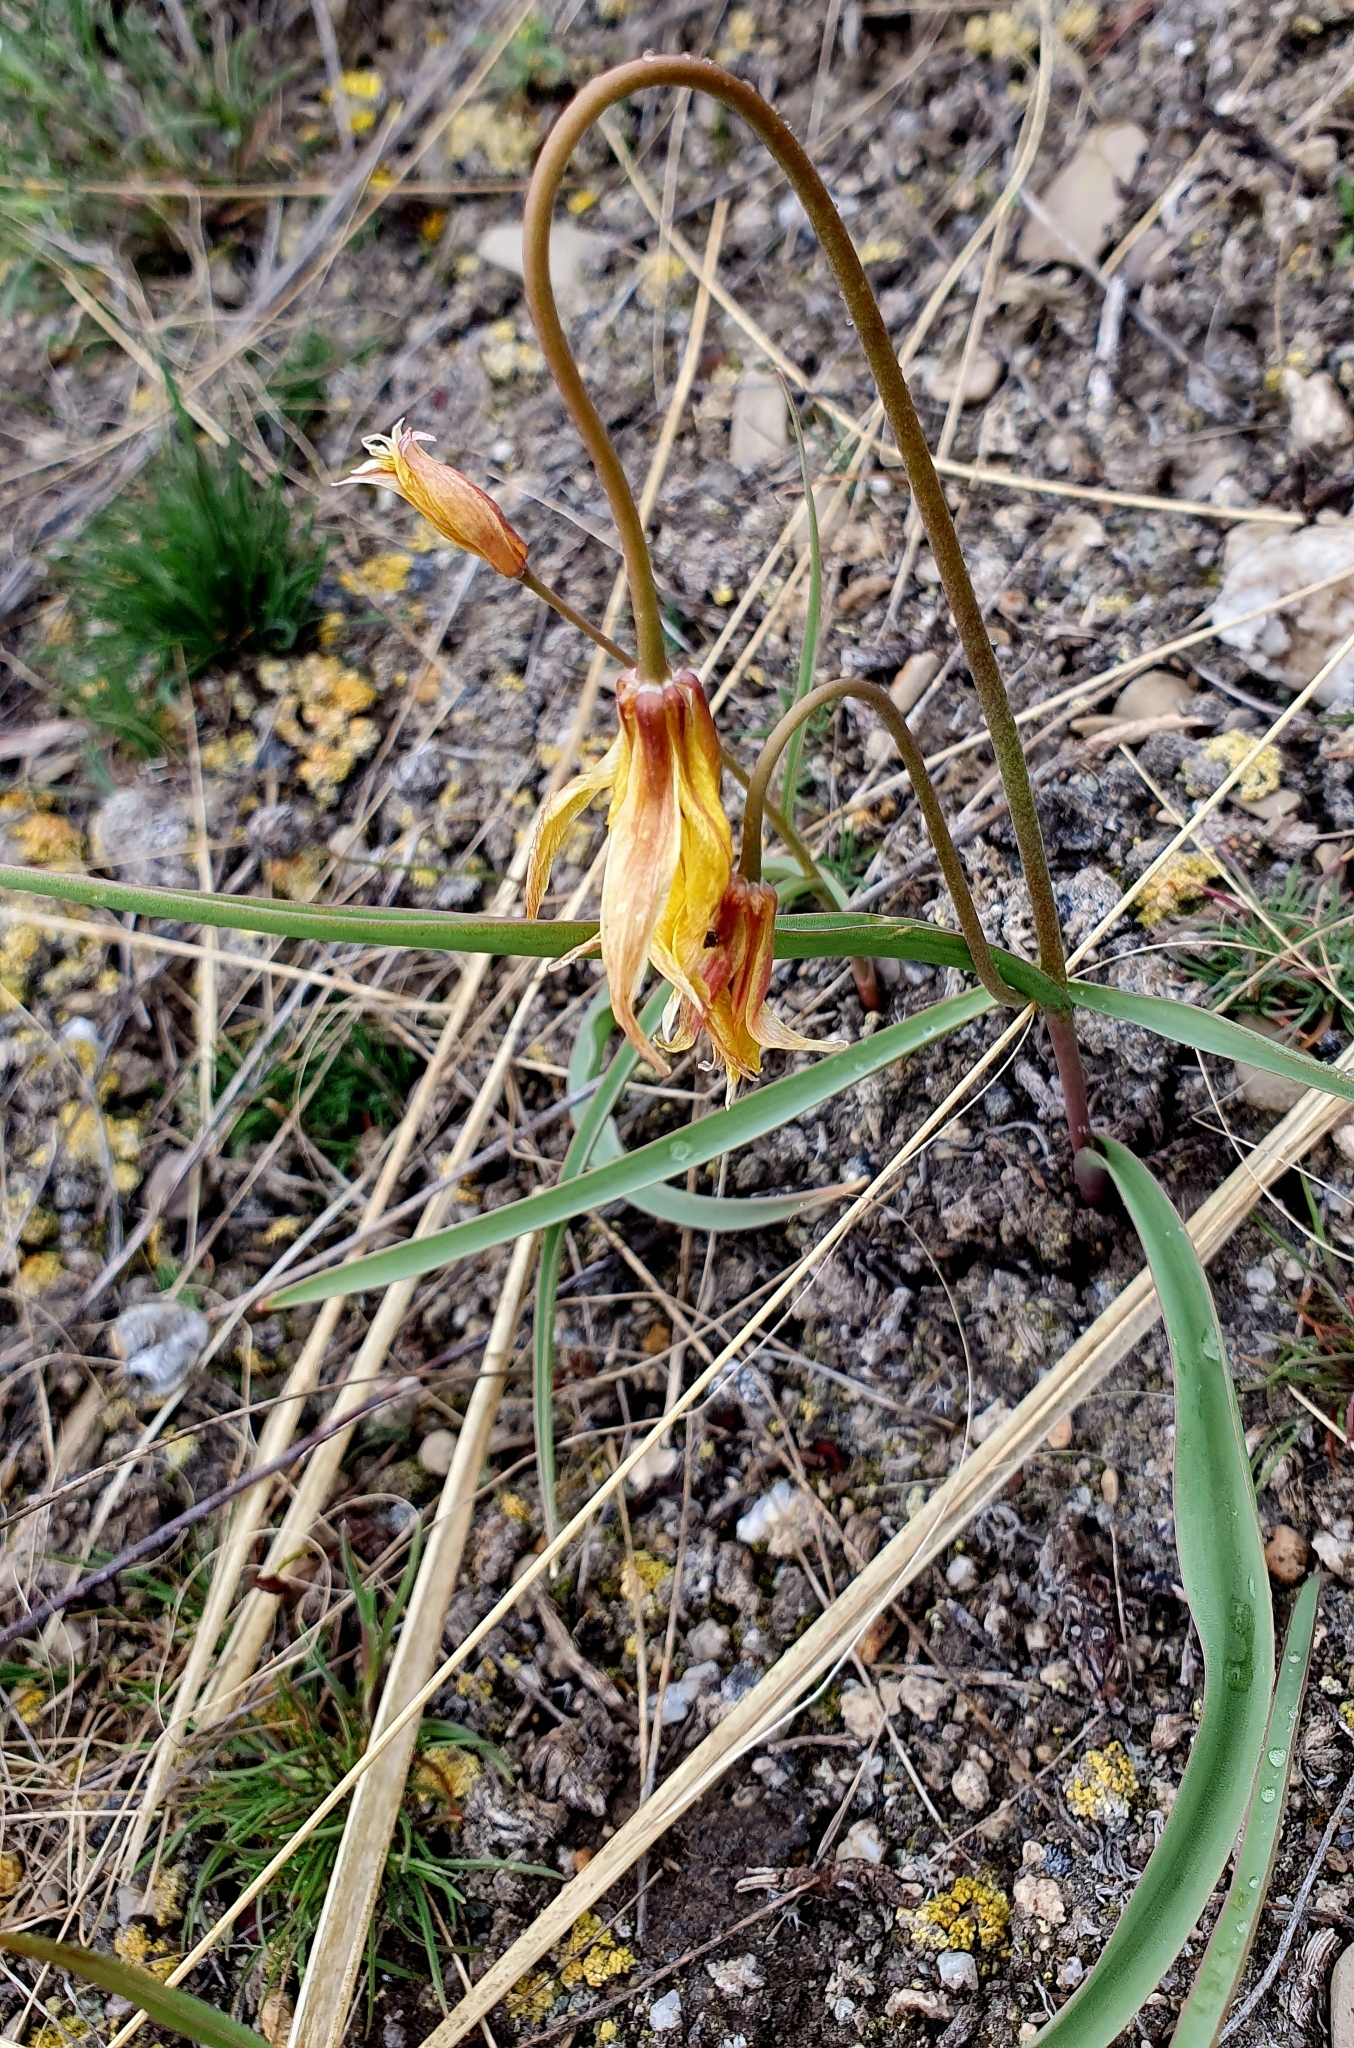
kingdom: Plantae
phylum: Tracheophyta
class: Liliopsida
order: Liliales
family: Liliaceae
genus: Tulipa
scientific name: Tulipa sylvestris
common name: Wild tulip
